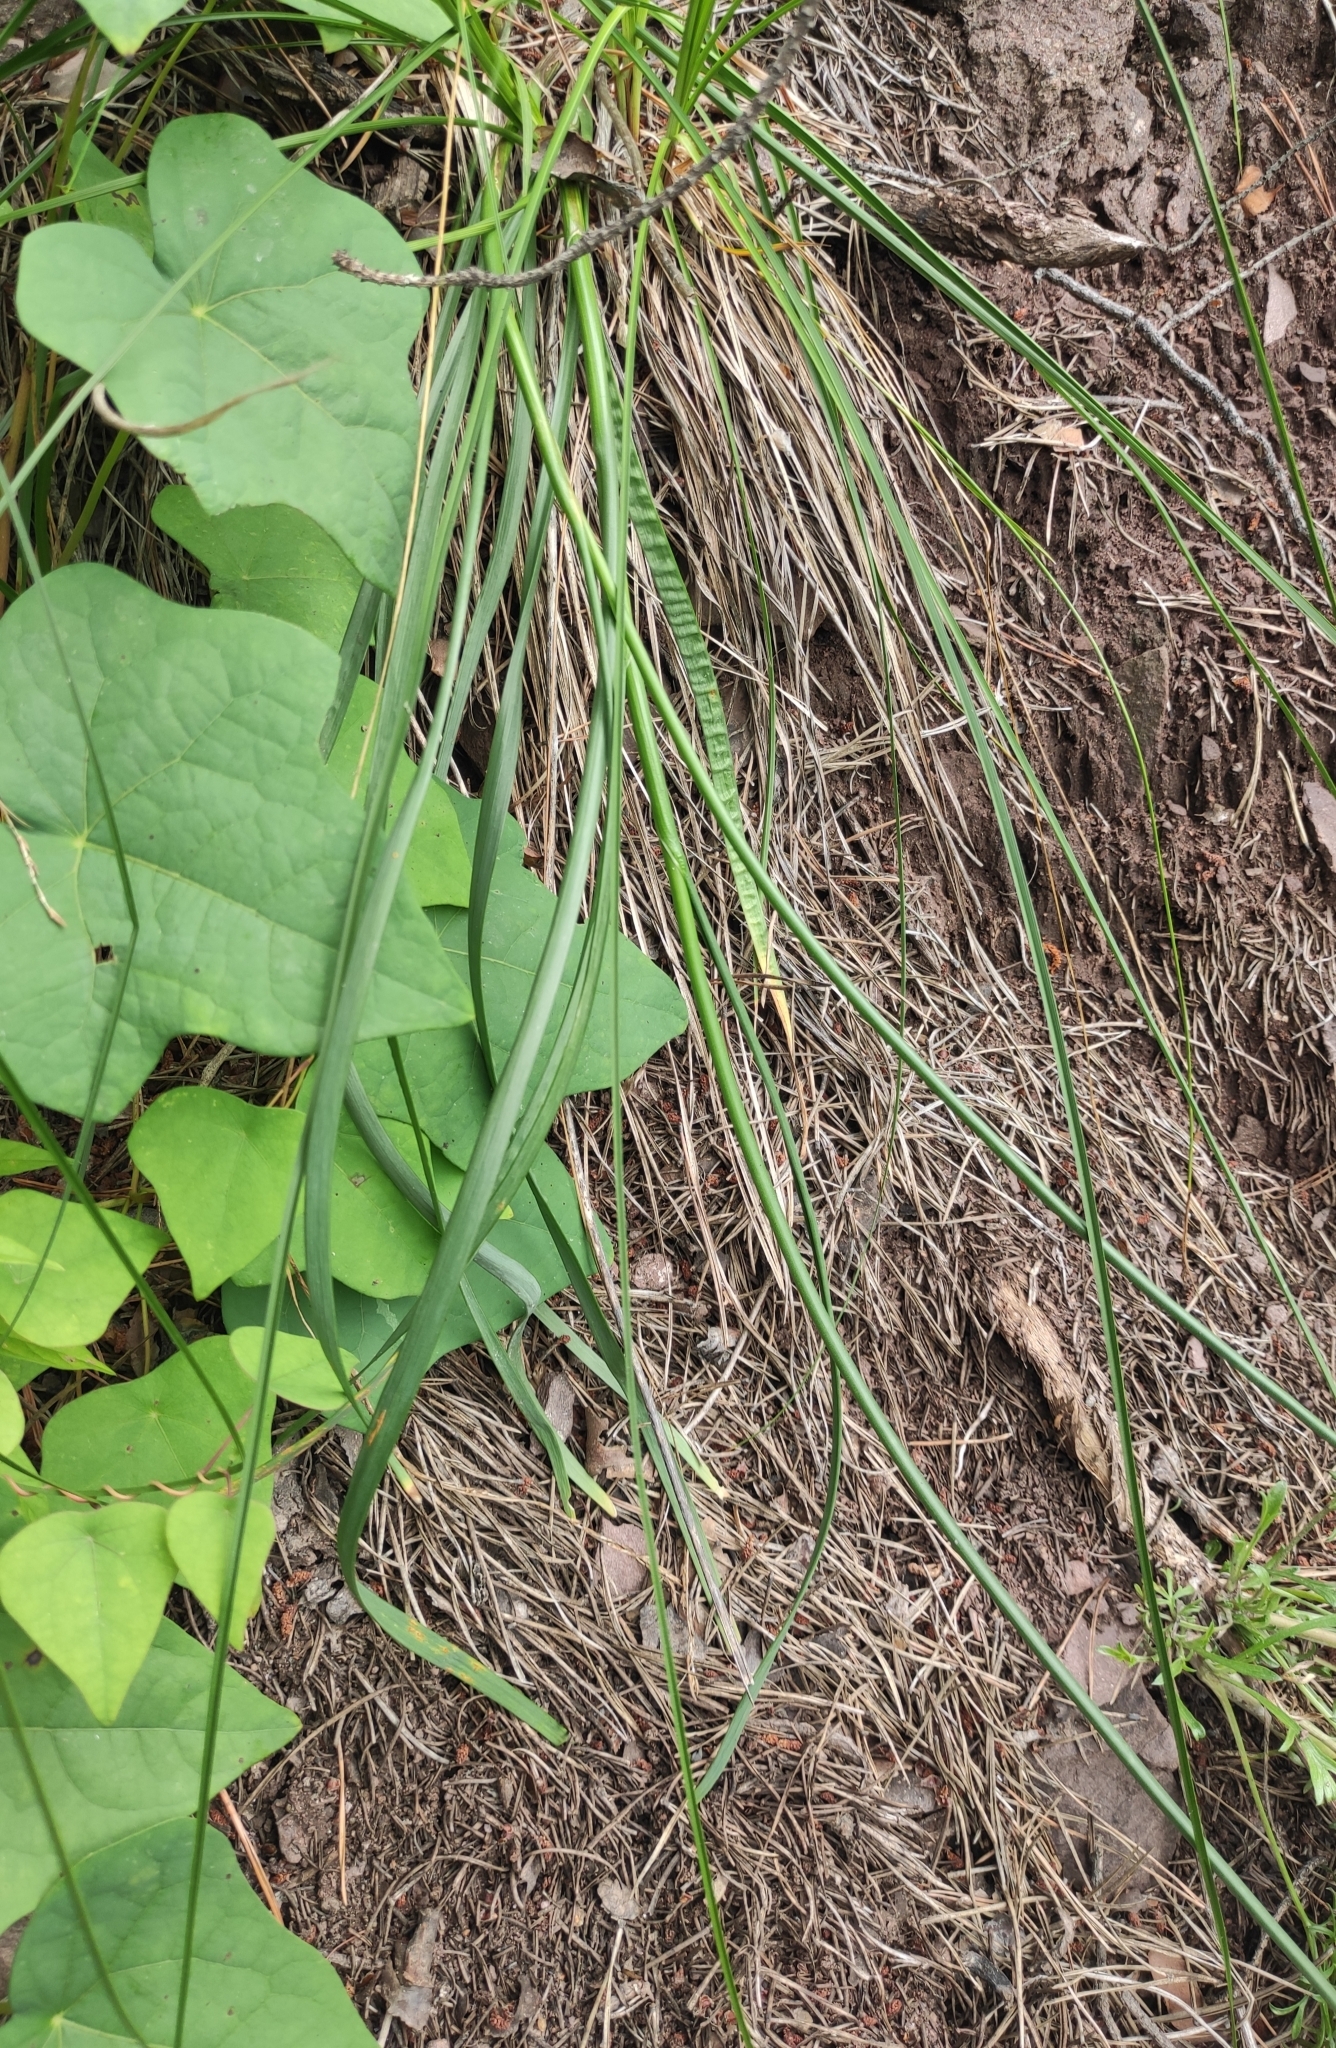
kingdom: Plantae
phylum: Tracheophyta
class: Liliopsida
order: Asparagales
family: Amaryllidaceae
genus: Allium
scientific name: Allium splendens
